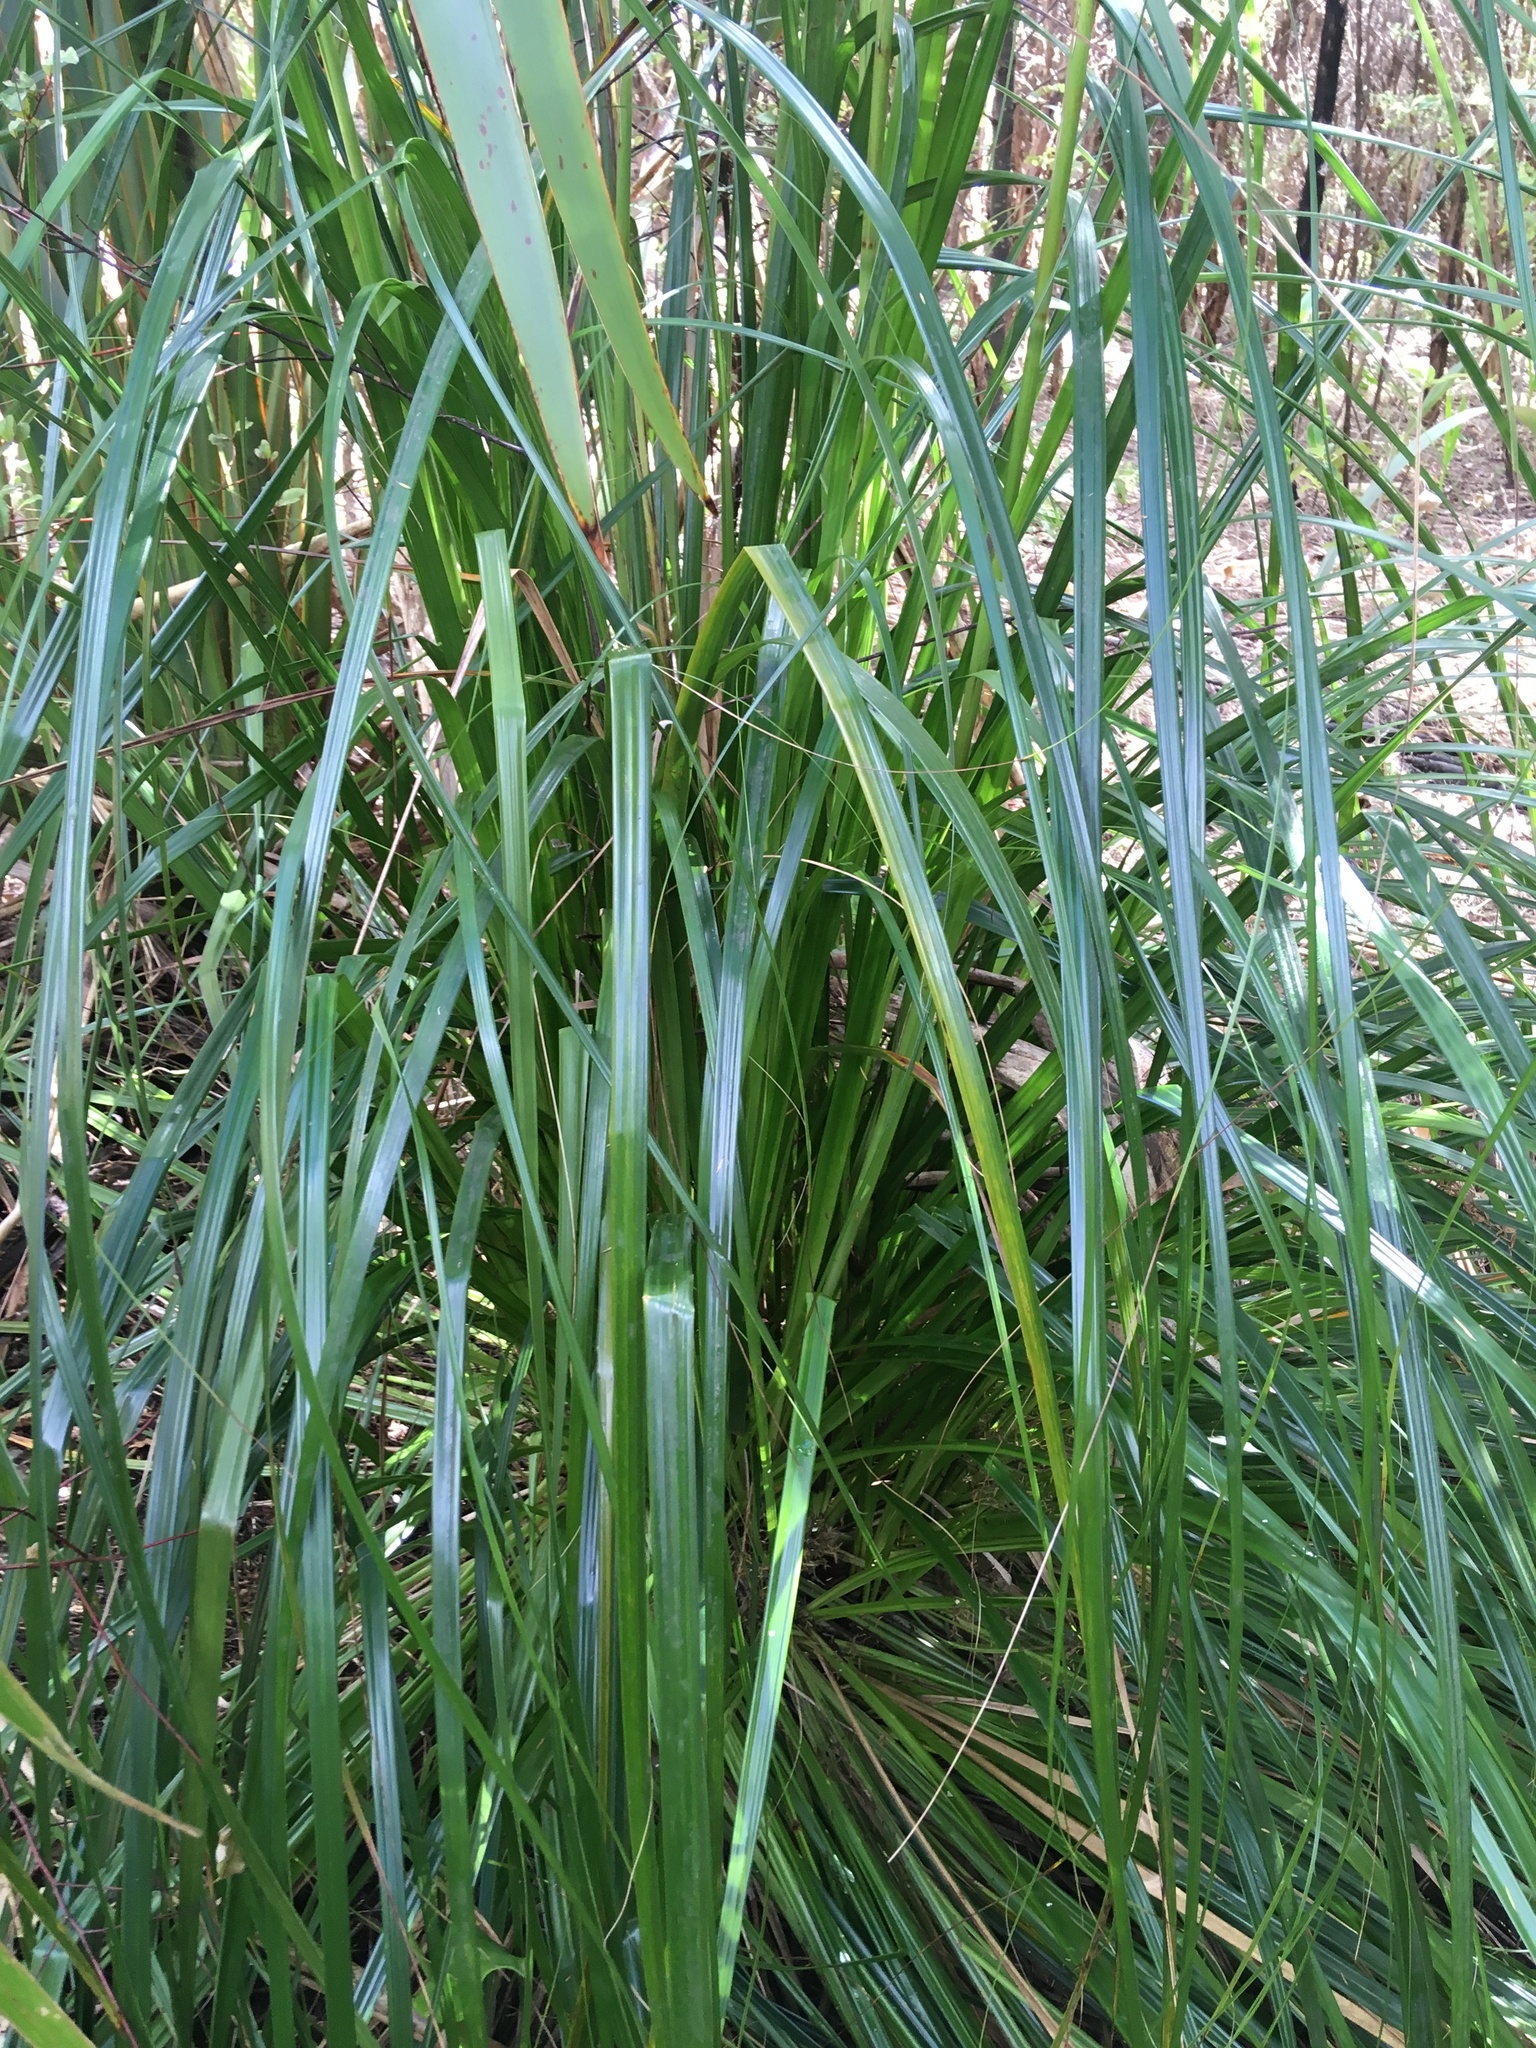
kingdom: Plantae
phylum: Tracheophyta
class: Liliopsida
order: Poales
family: Cyperaceae
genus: Gahnia
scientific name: Gahnia xanthocarpa
